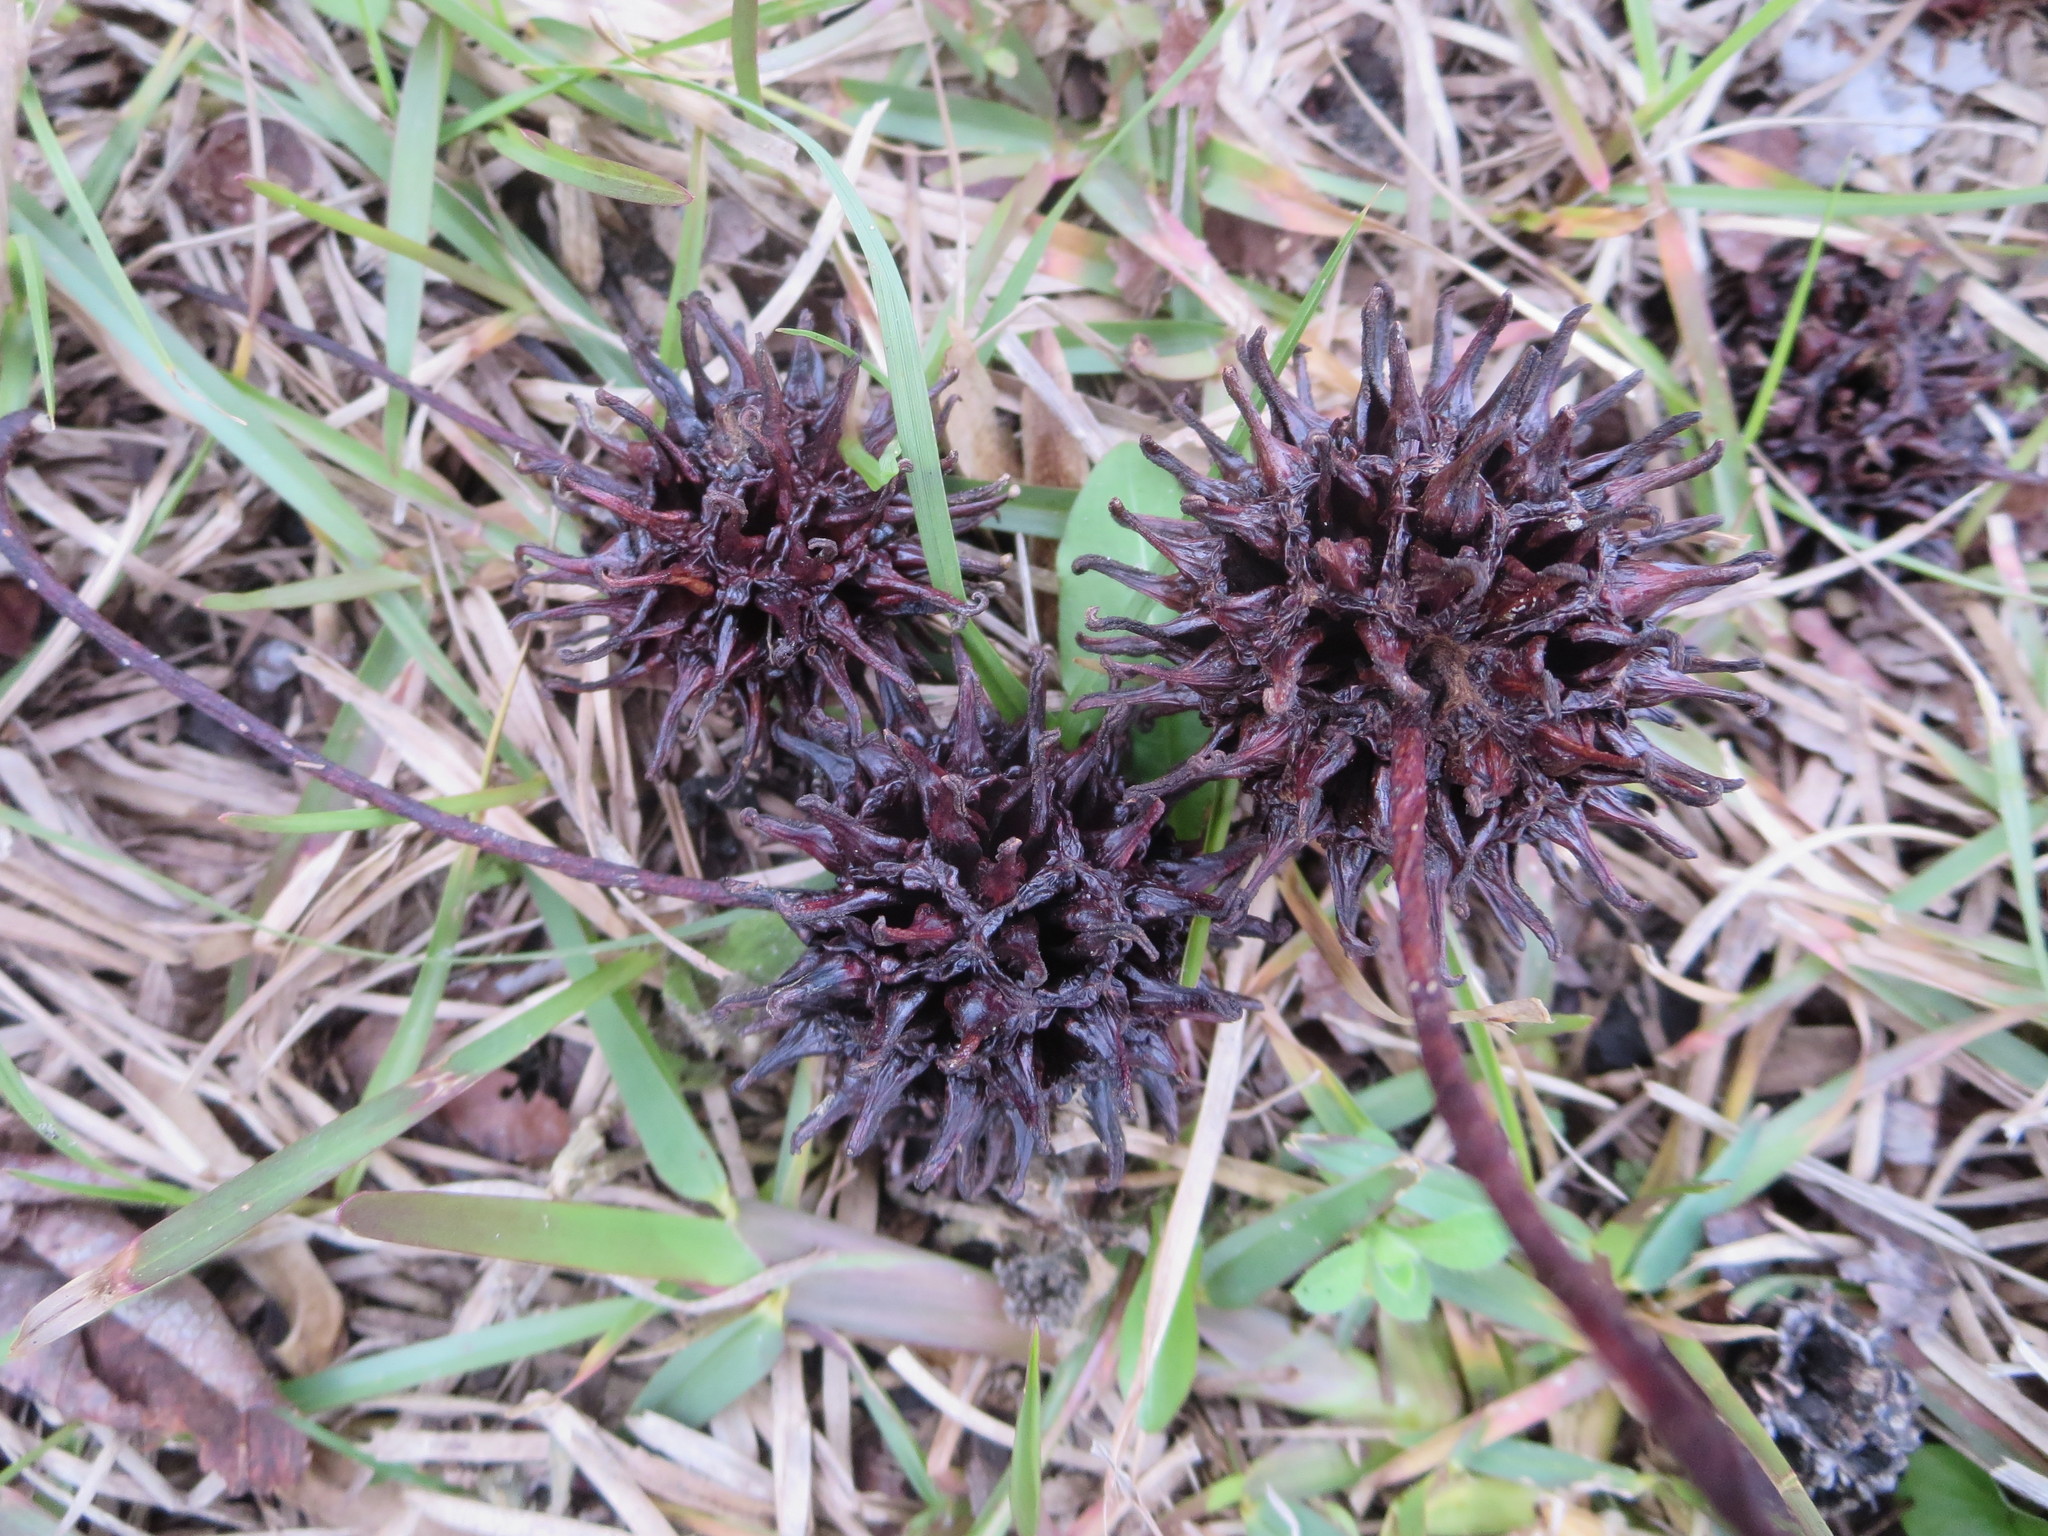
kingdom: Plantae
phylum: Tracheophyta
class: Magnoliopsida
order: Saxifragales
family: Altingiaceae
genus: Liquidambar
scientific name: Liquidambar styraciflua
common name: Sweet gum
